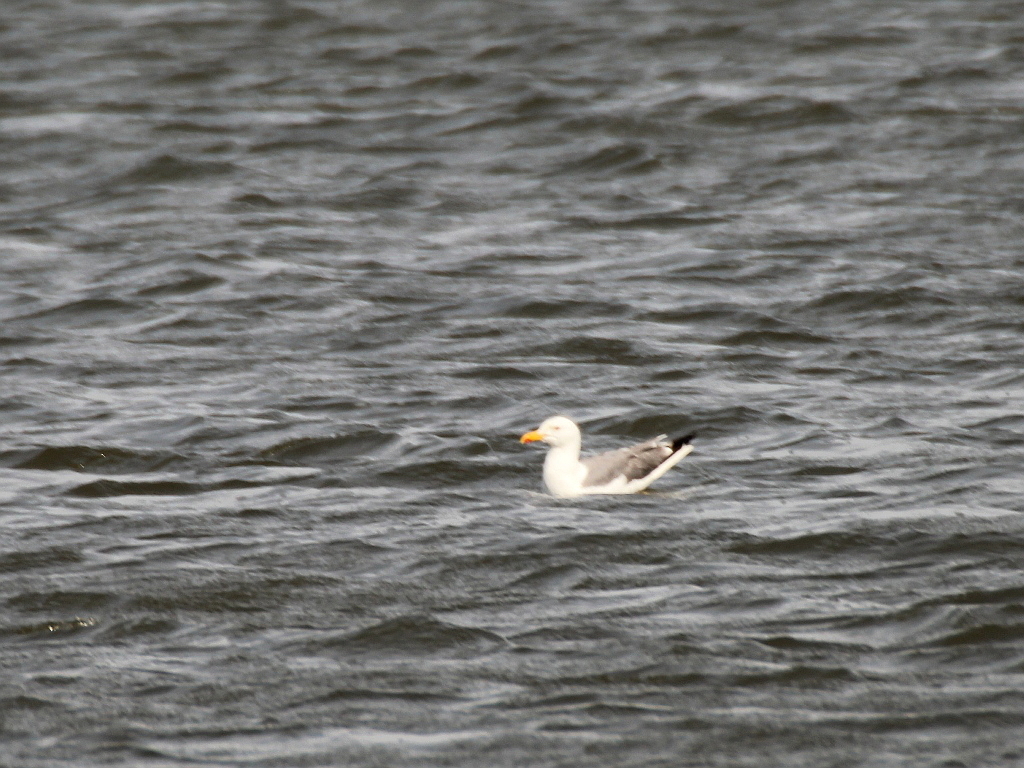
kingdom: Animalia
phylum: Chordata
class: Aves
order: Charadriiformes
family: Laridae
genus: Larus
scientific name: Larus fuscus
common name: Lesser black-backed gull
